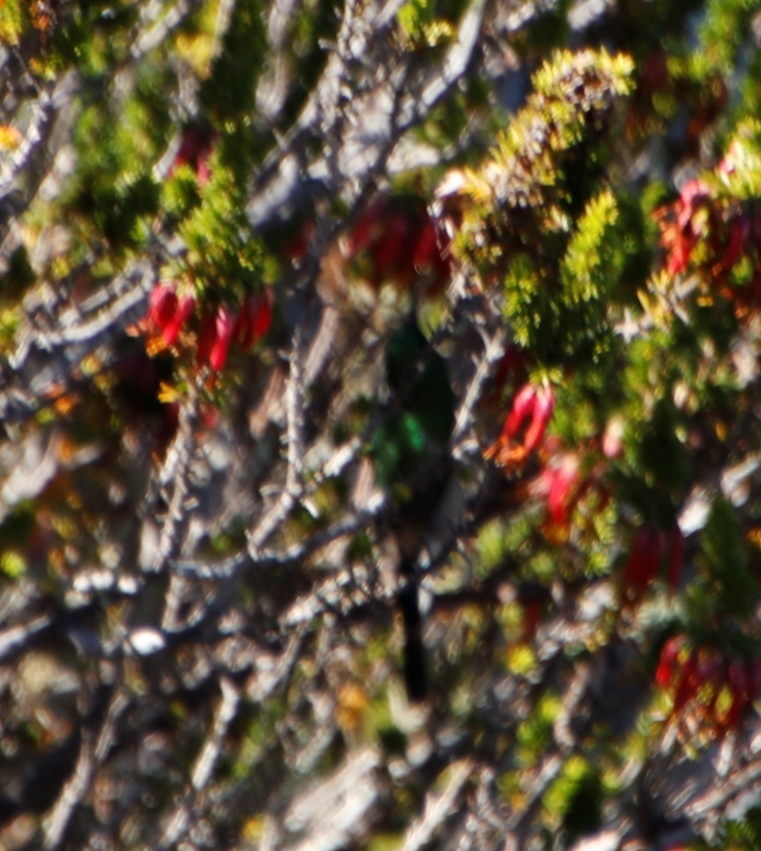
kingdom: Plantae
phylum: Tracheophyta
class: Magnoliopsida
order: Ericales
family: Ericaceae
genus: Erica
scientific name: Erica coccinea
